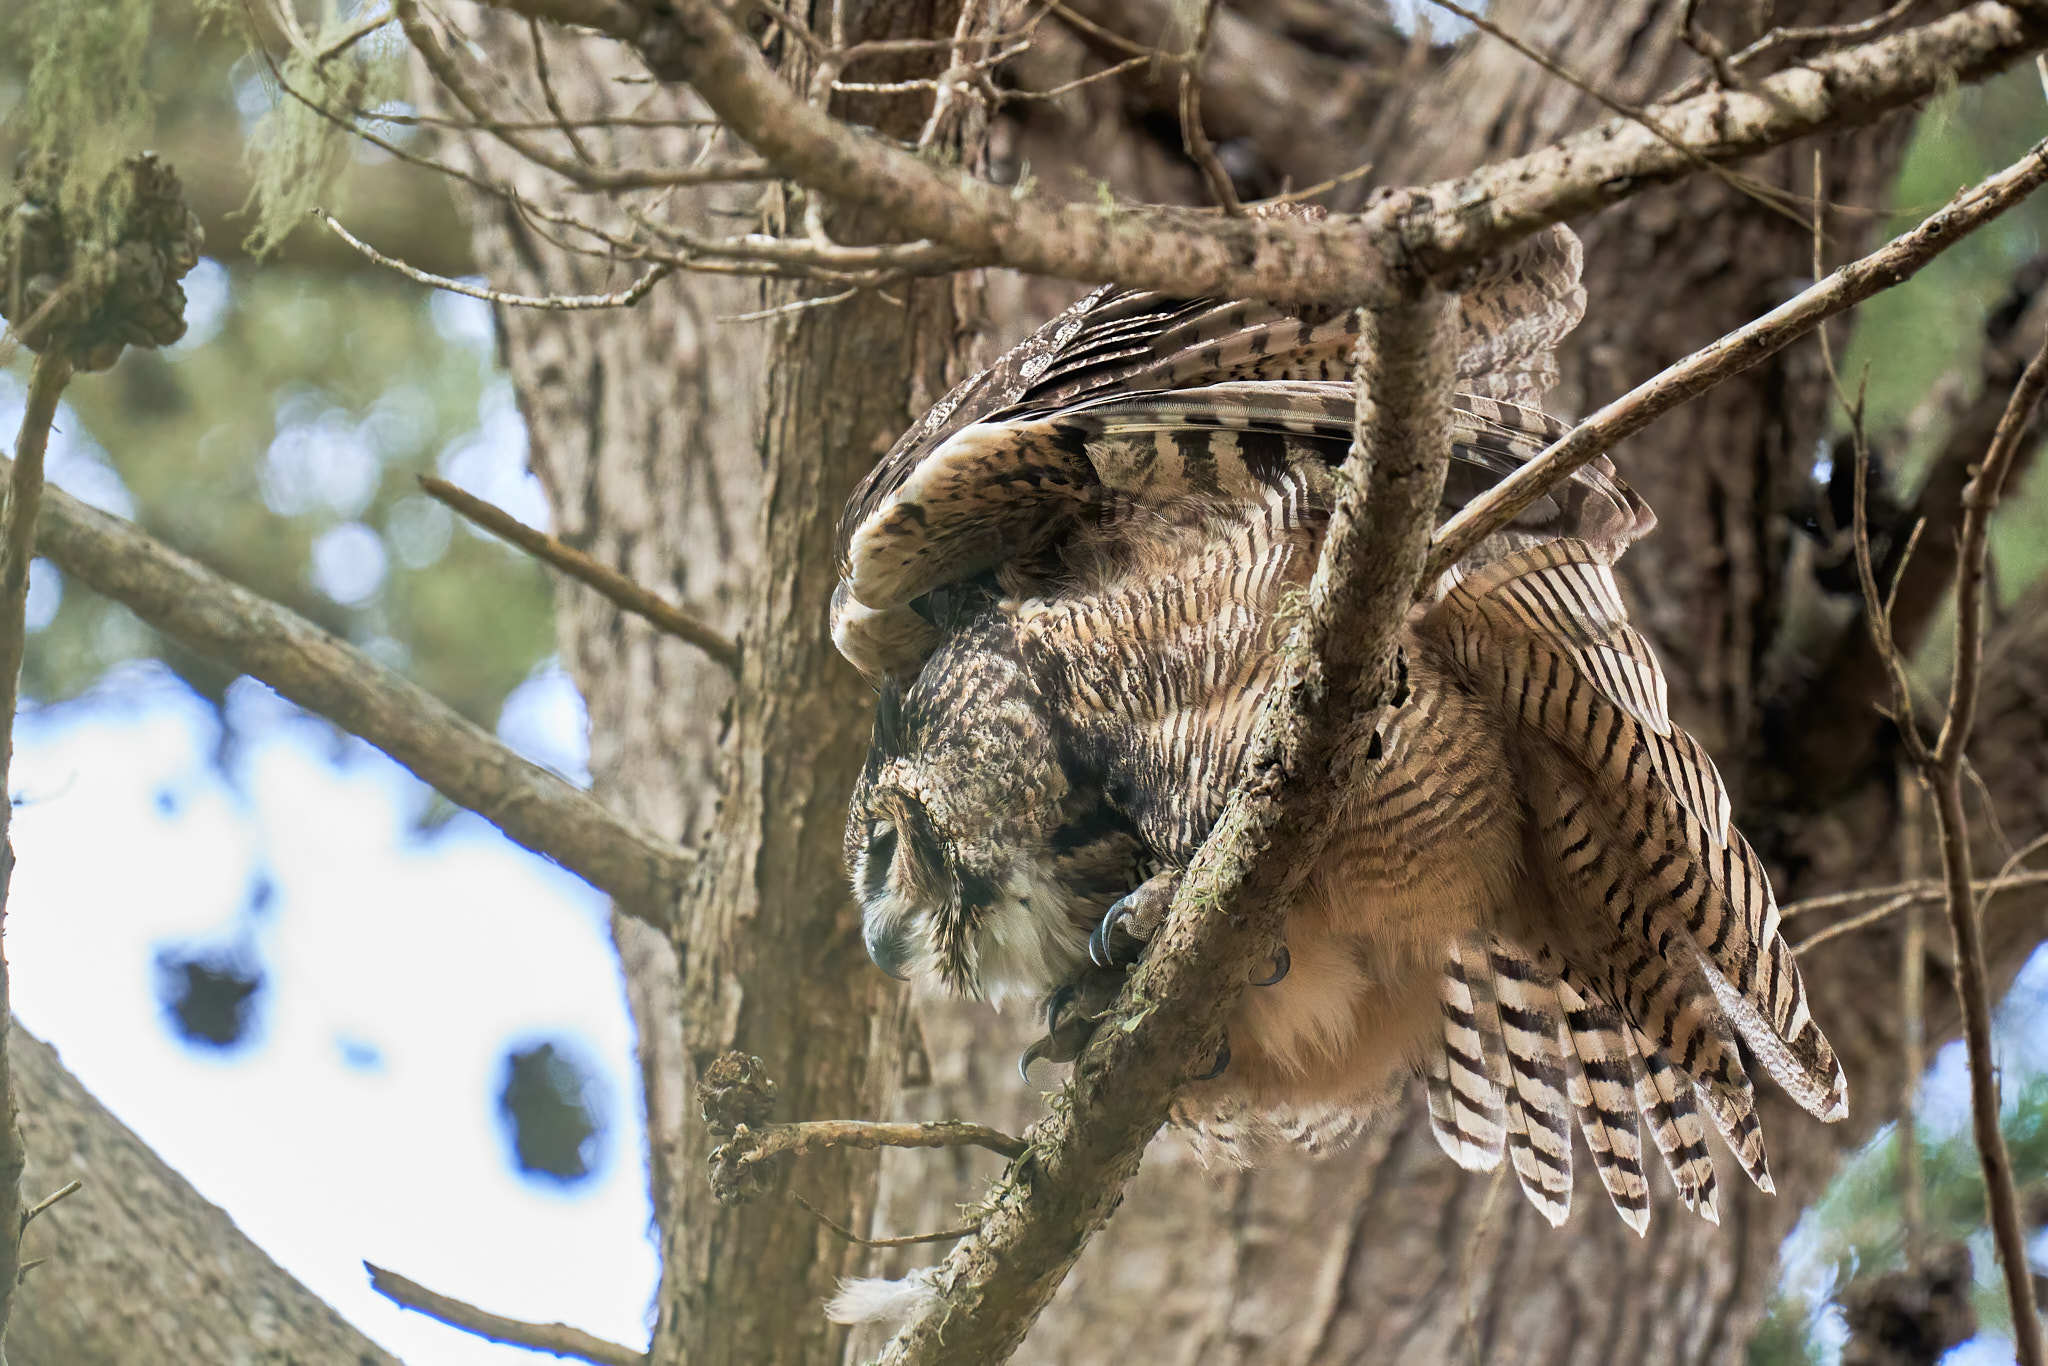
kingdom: Animalia
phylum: Chordata
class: Aves
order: Strigiformes
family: Strigidae
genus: Bubo
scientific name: Bubo virginianus
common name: Great horned owl
